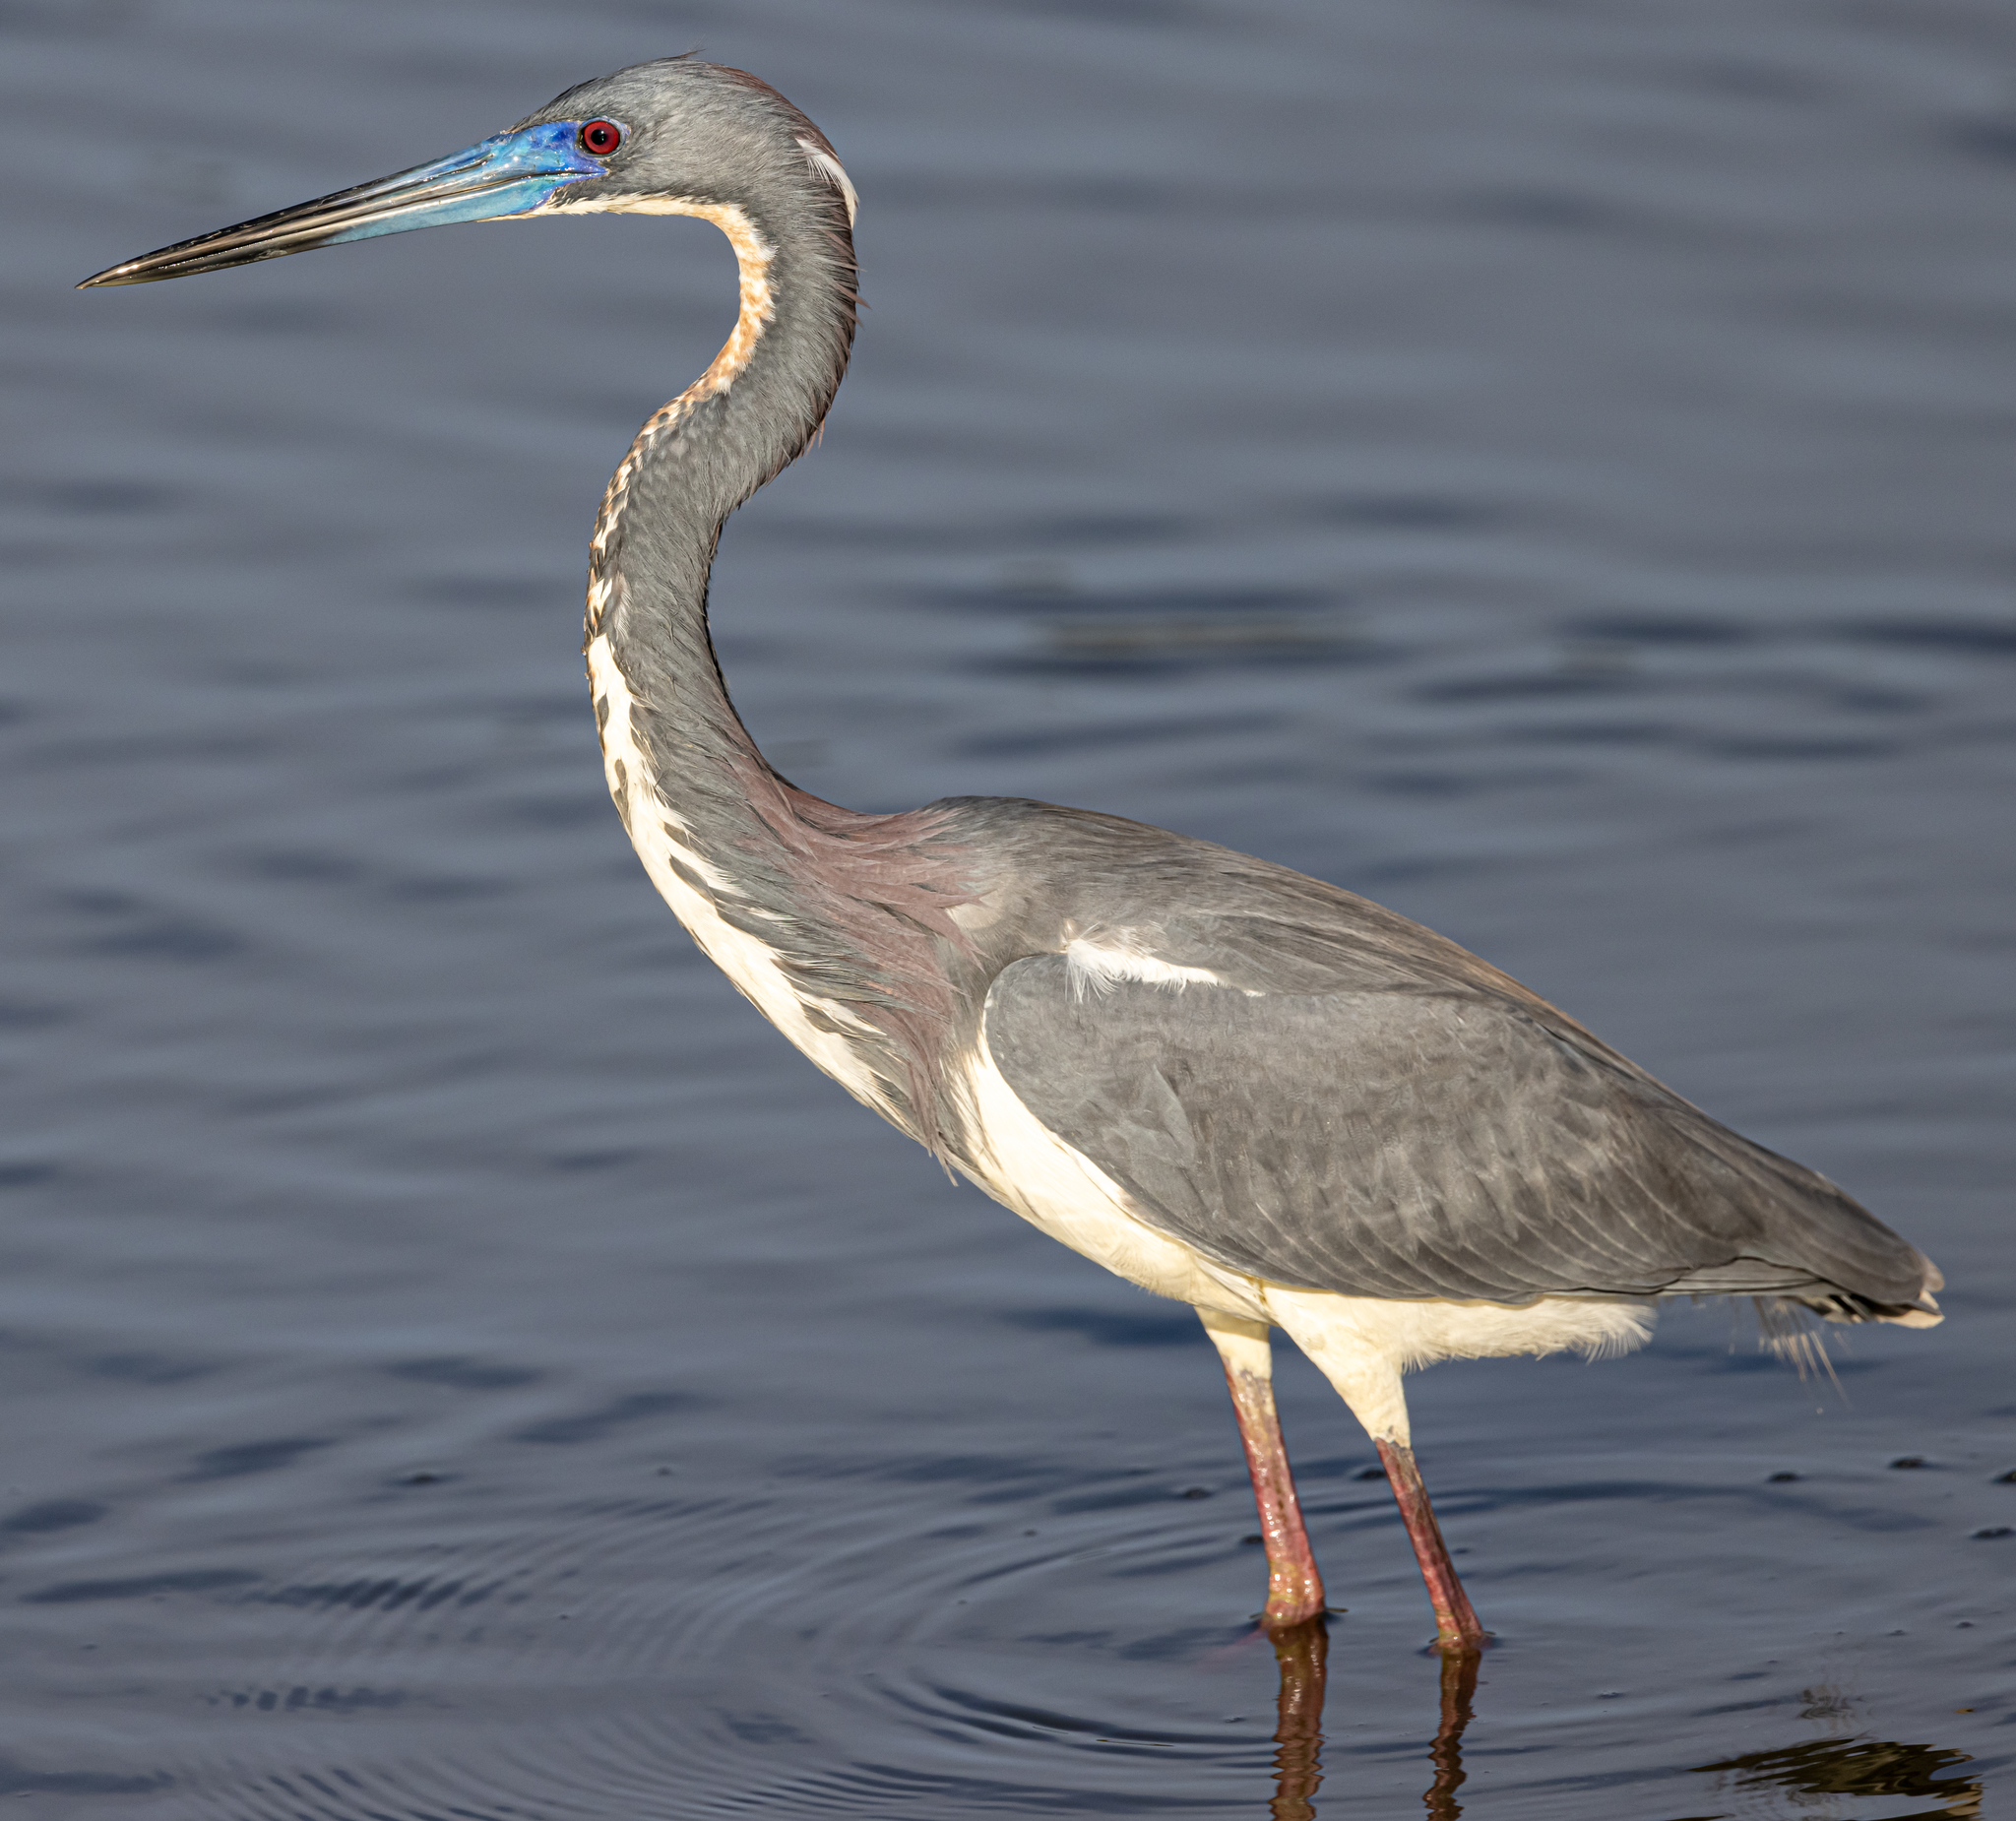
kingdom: Animalia
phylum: Chordata
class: Aves
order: Pelecaniformes
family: Ardeidae
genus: Egretta
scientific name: Egretta tricolor
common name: Tricolored heron
